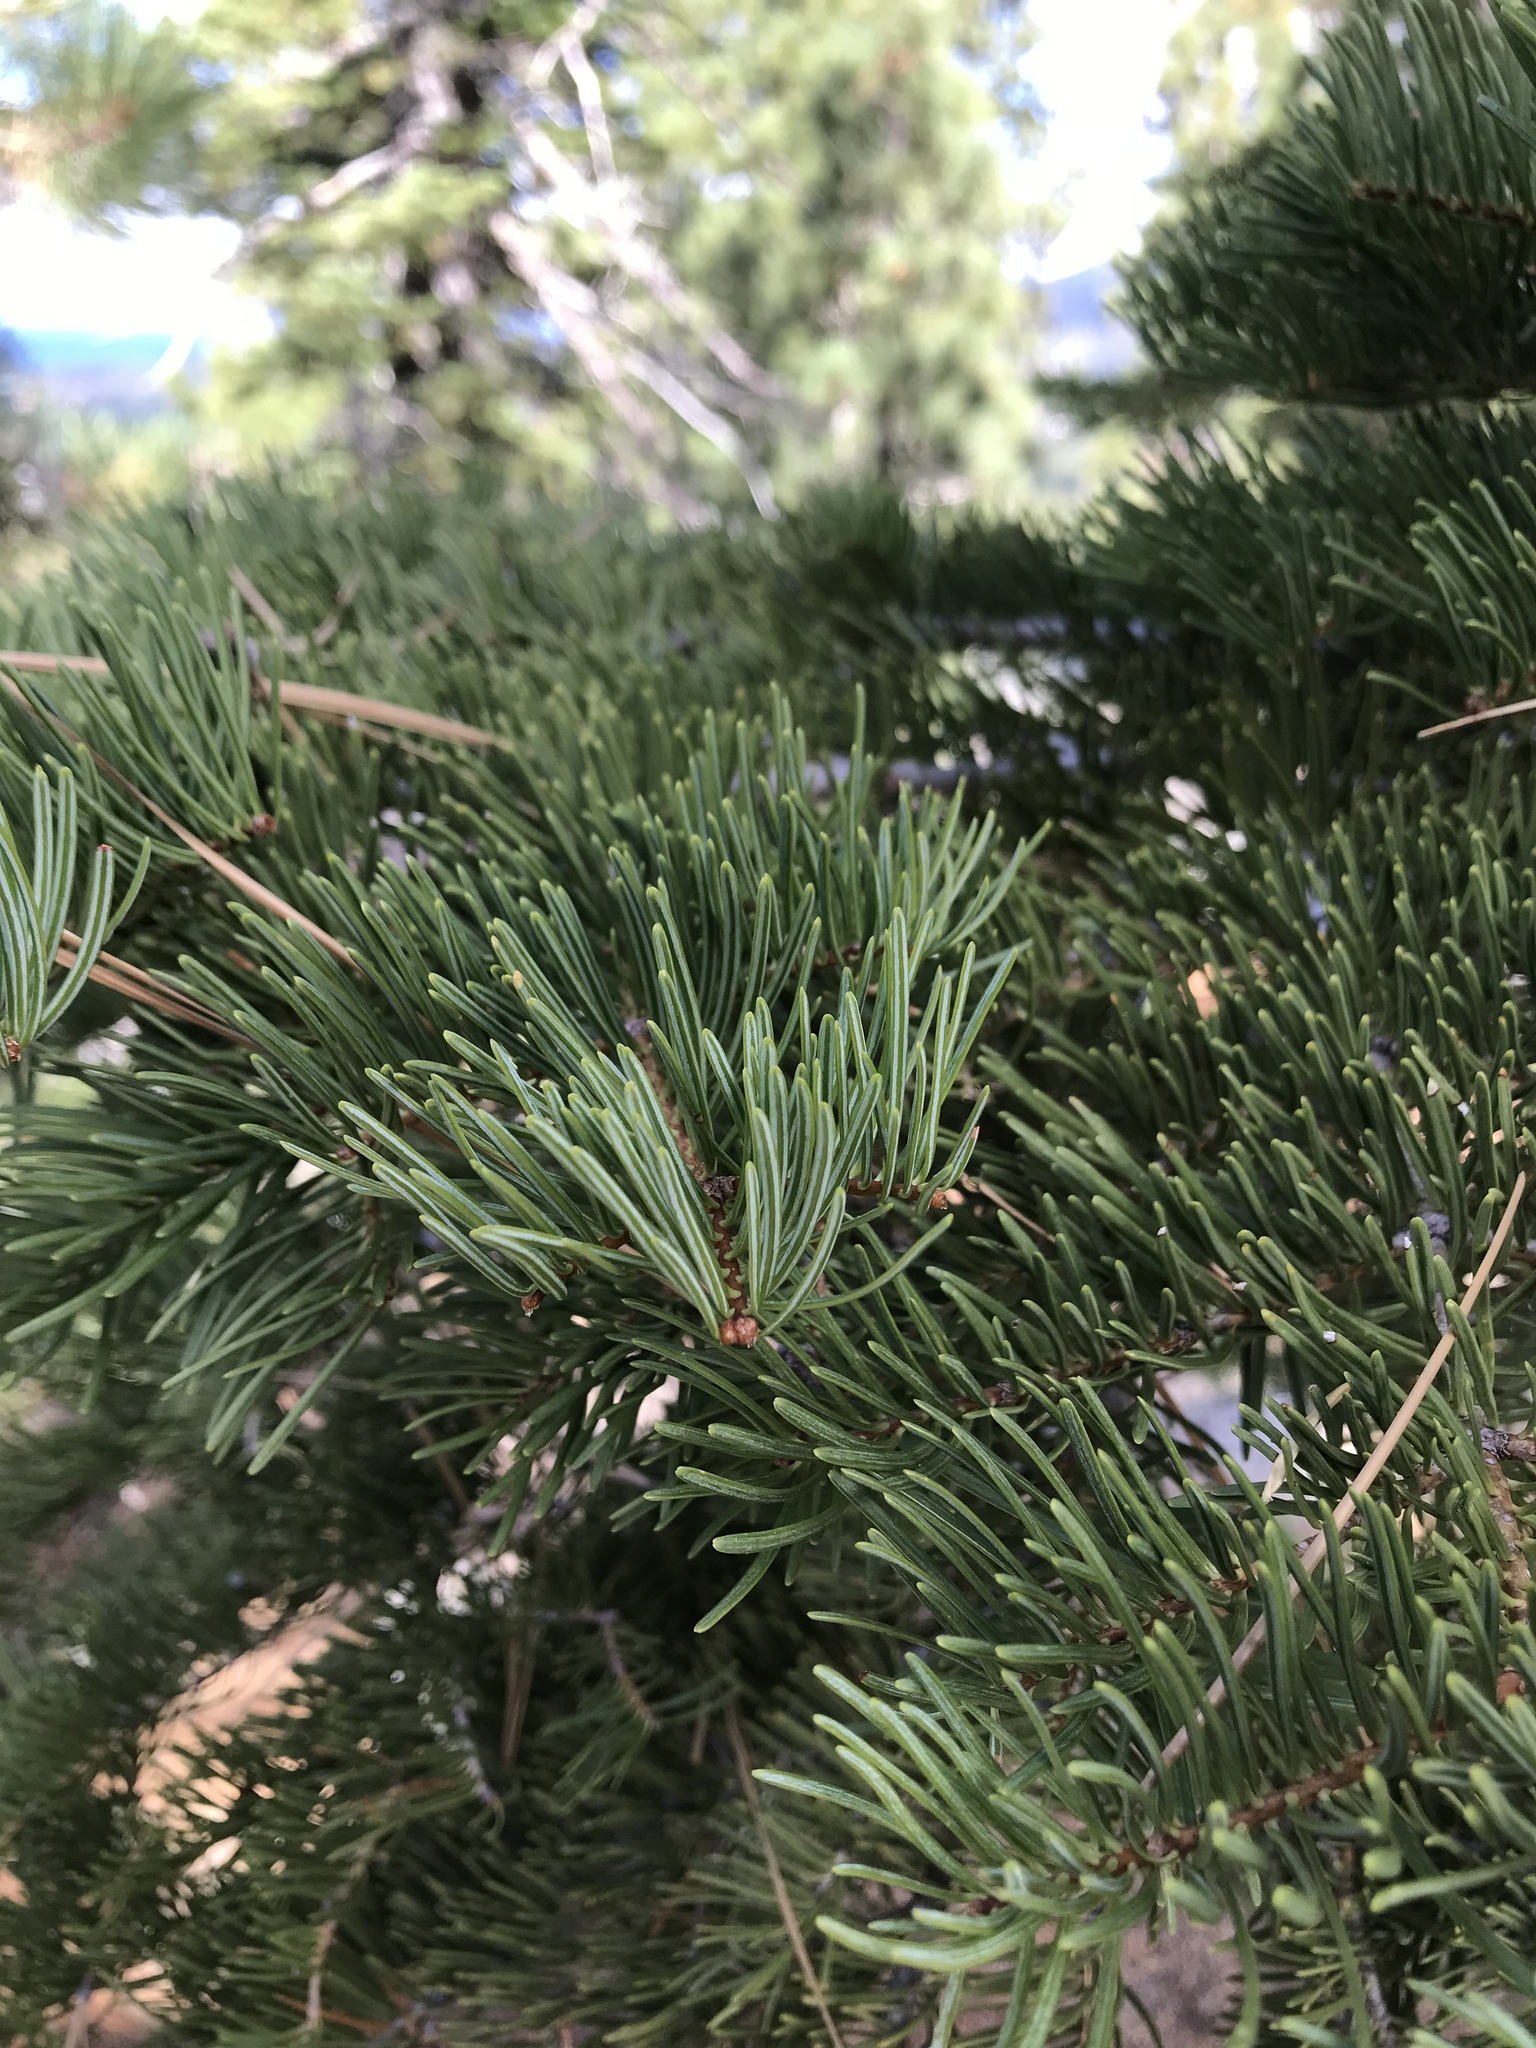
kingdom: Plantae
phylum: Tracheophyta
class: Pinopsida
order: Pinales
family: Pinaceae
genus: Abies
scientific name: Abies concolor
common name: Colorado fir
